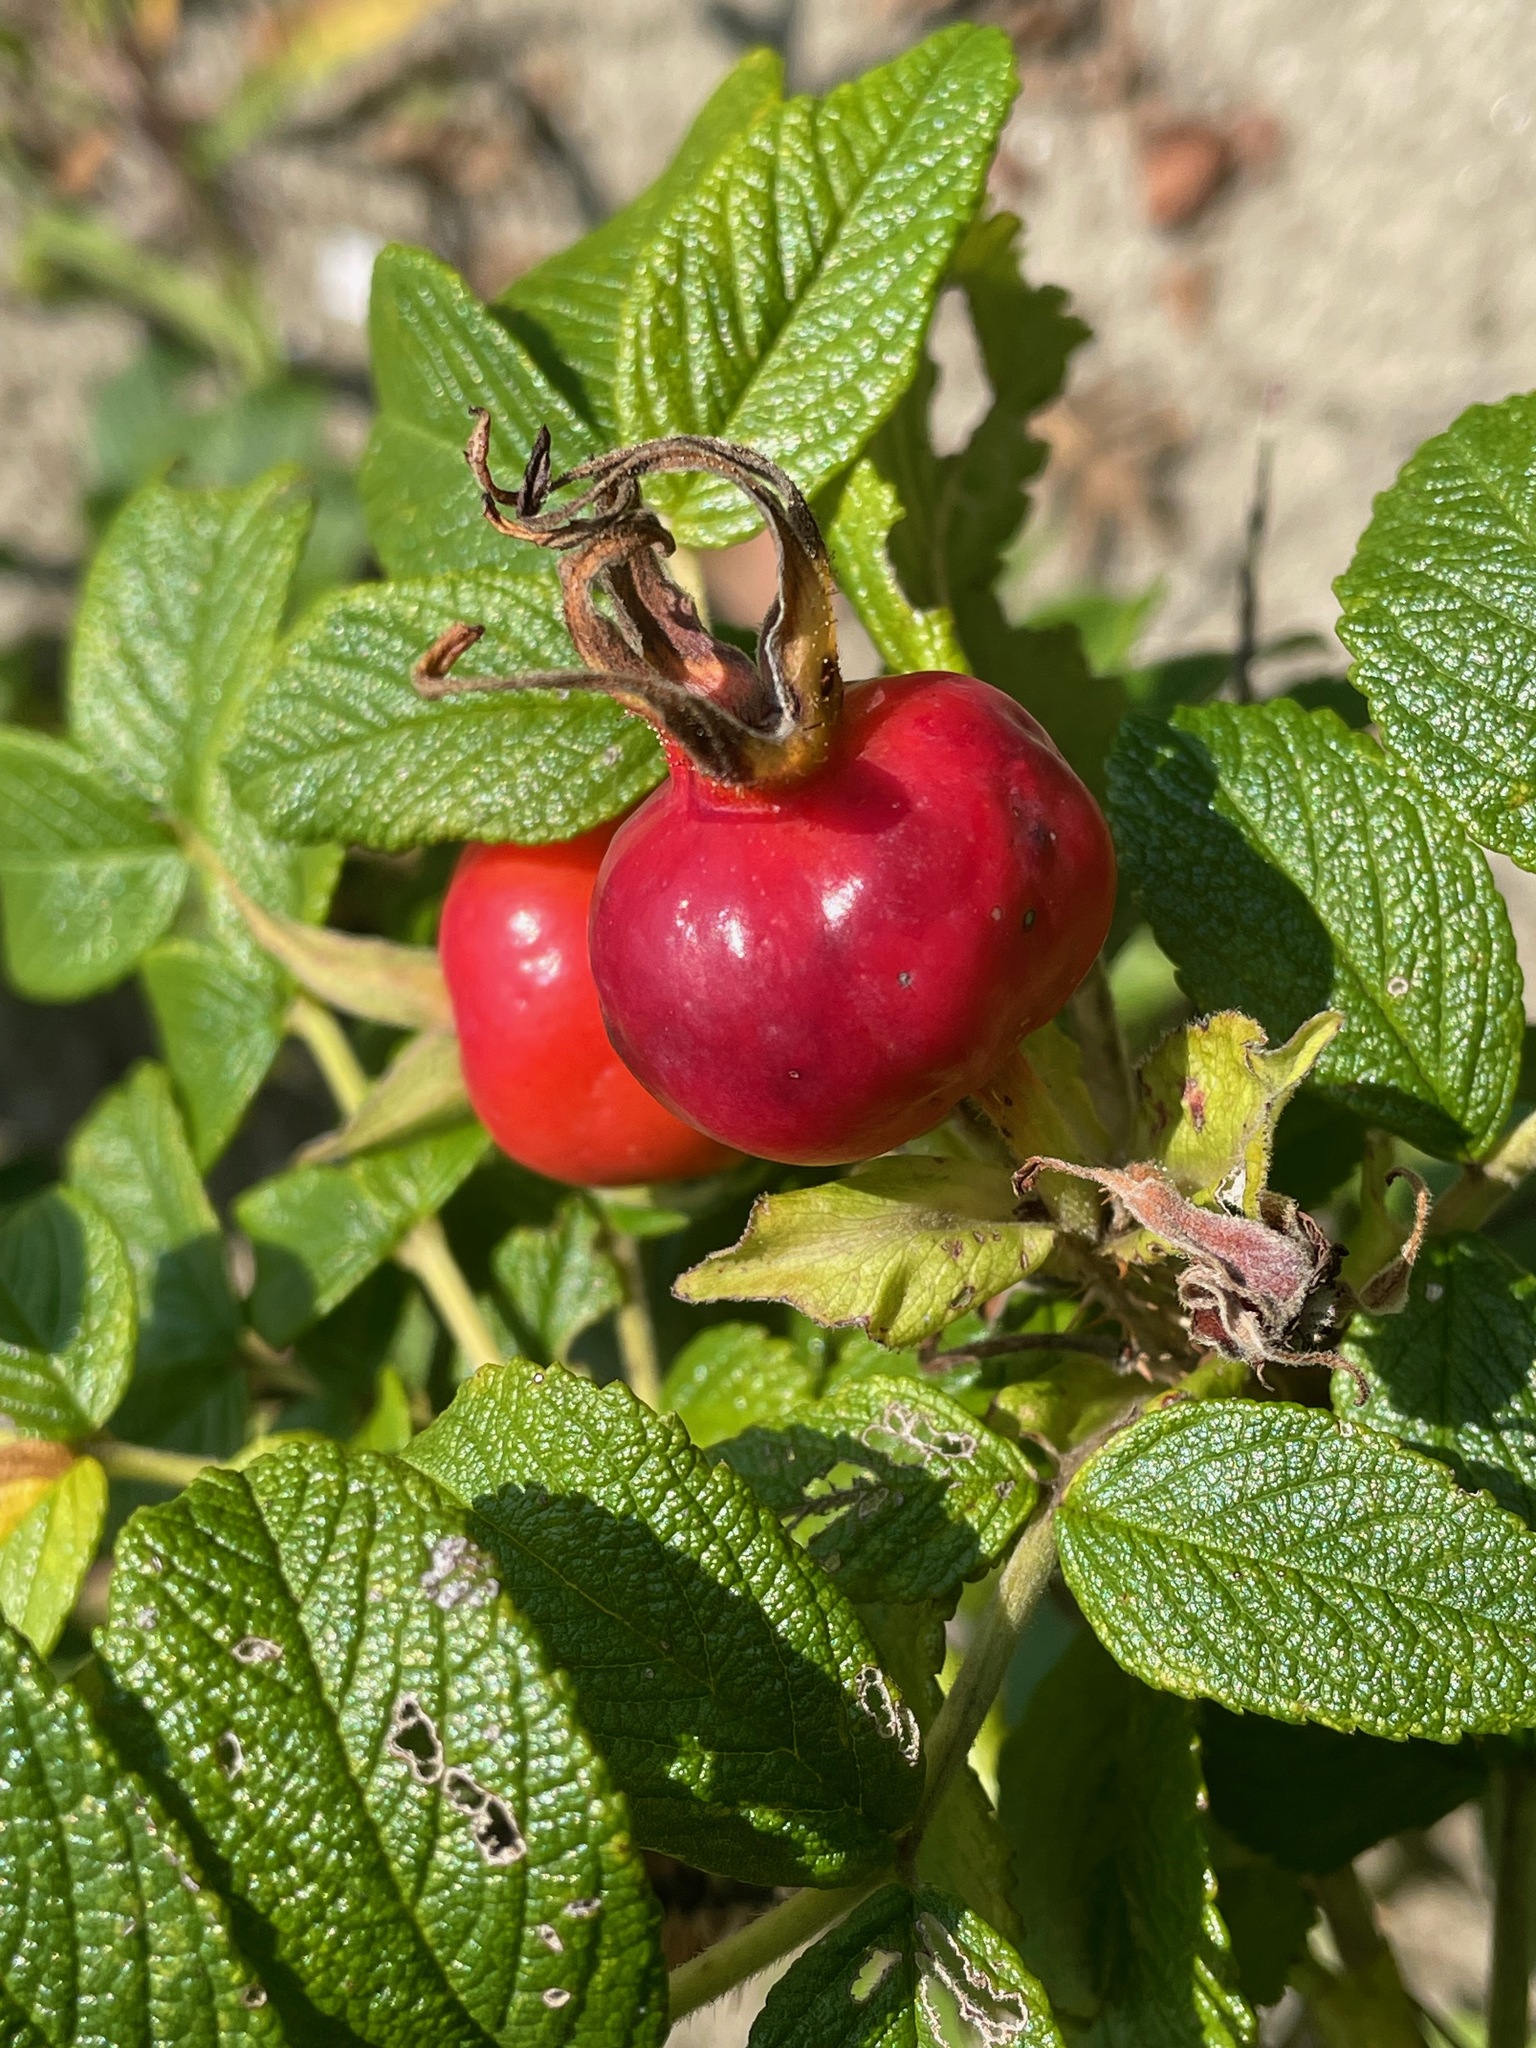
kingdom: Plantae
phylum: Tracheophyta
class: Magnoliopsida
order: Rosales
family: Rosaceae
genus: Rosa
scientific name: Rosa rugosa
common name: Japanese rose
